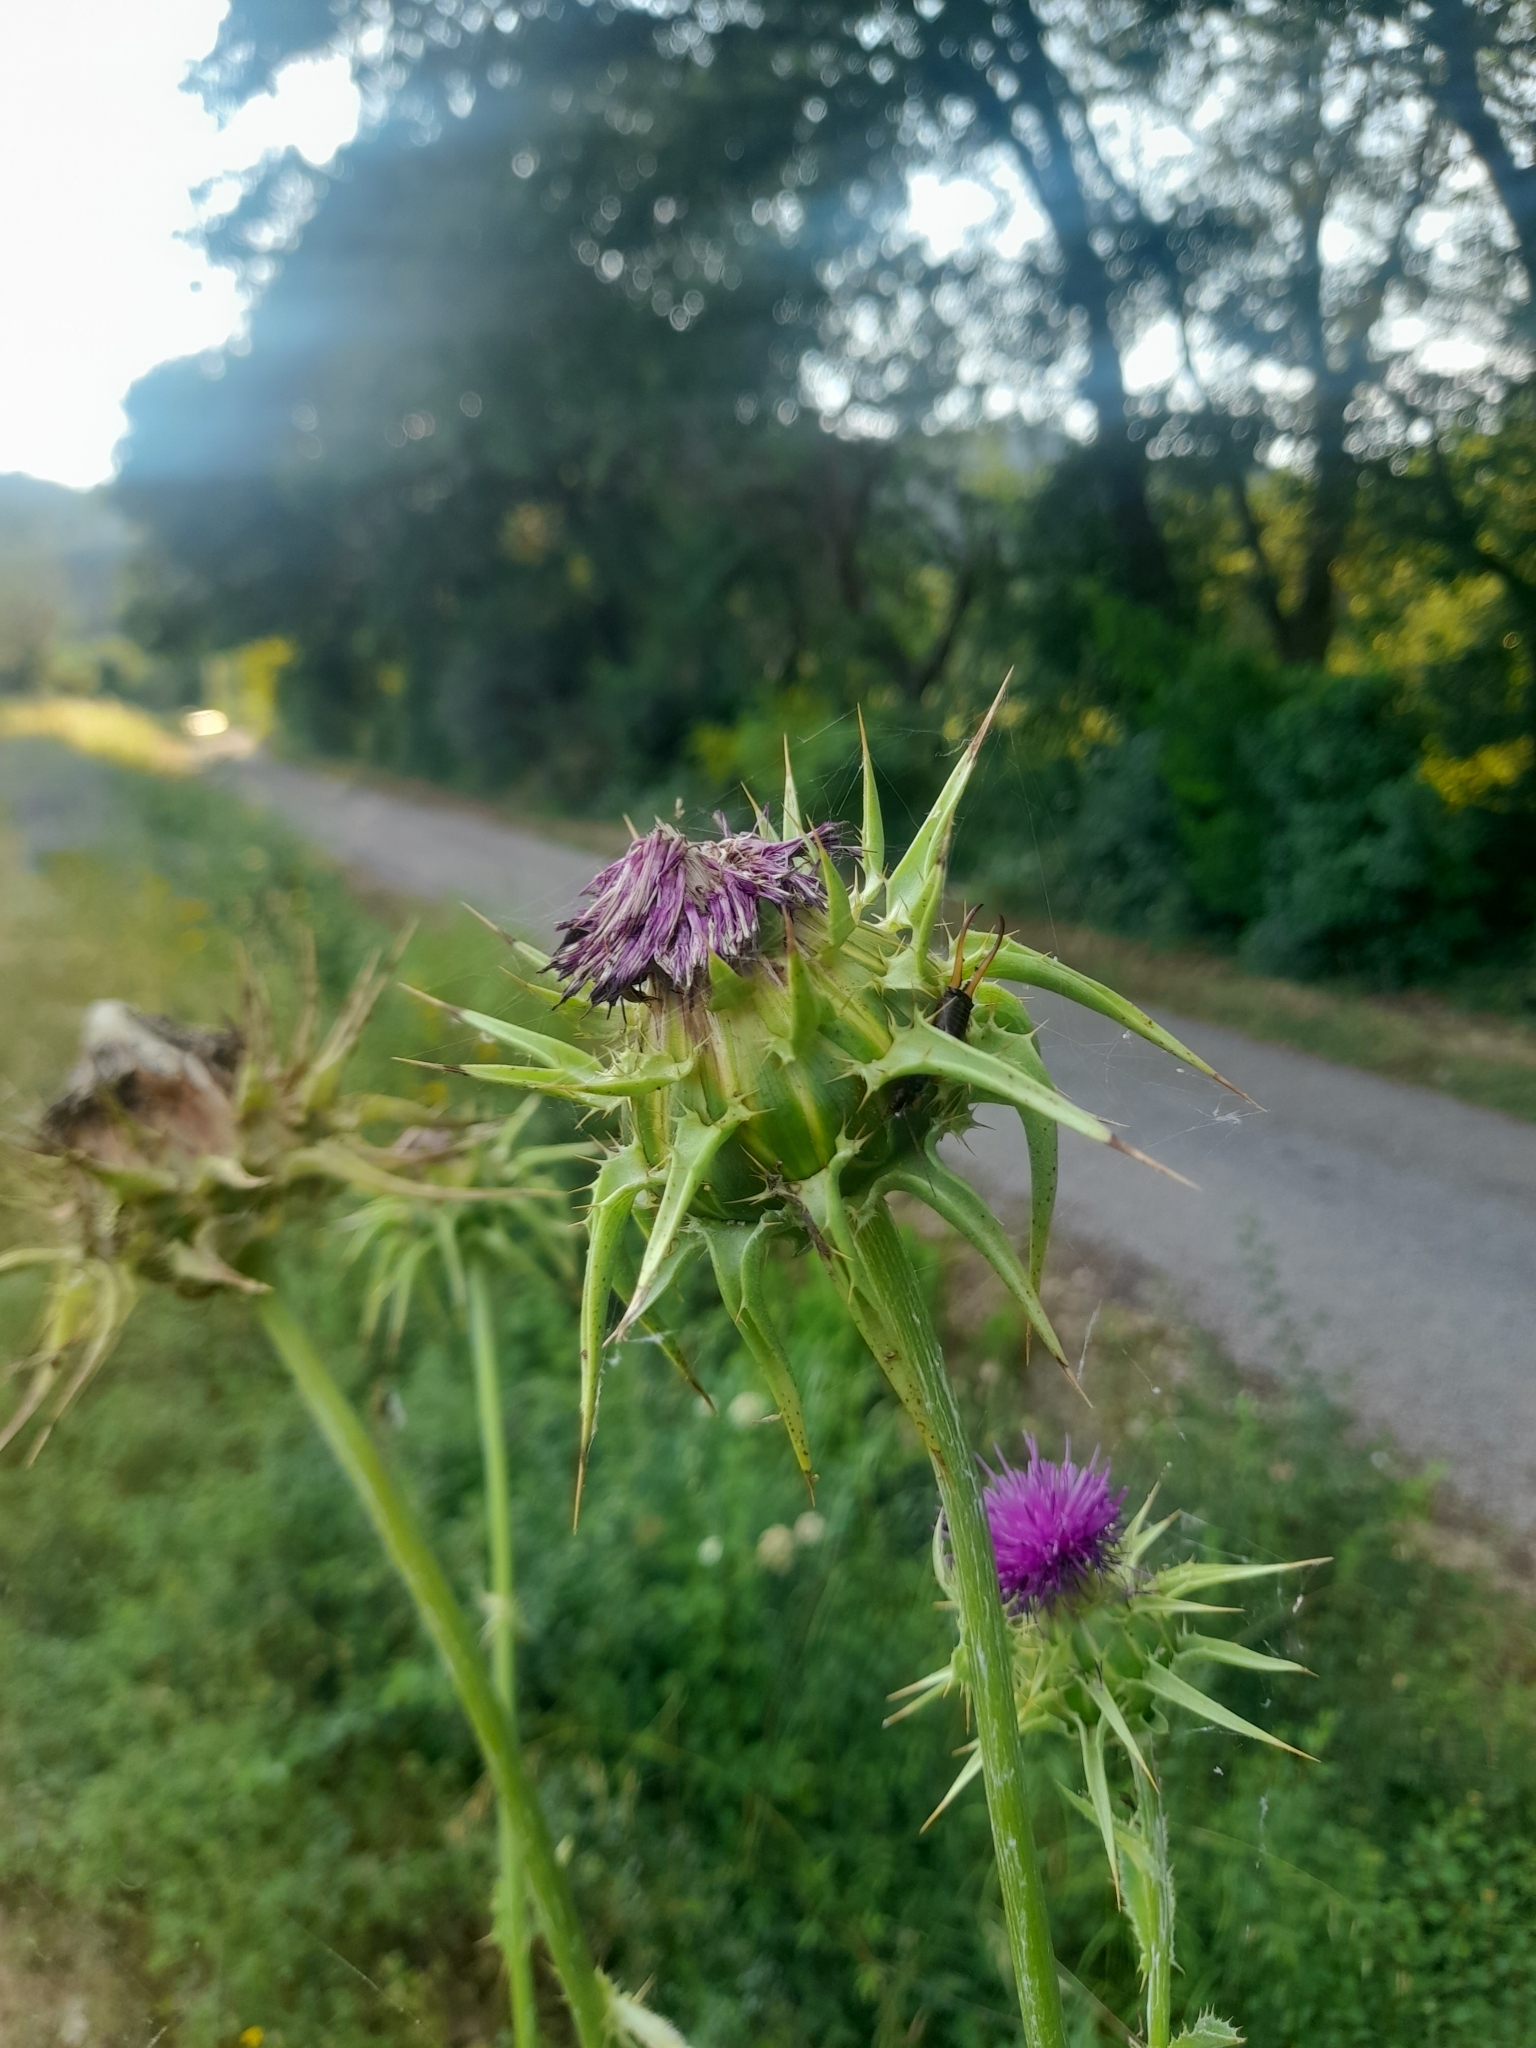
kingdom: Plantae
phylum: Tracheophyta
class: Magnoliopsida
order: Asterales
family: Asteraceae
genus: Silybum
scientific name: Silybum marianum
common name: Milk thistle
